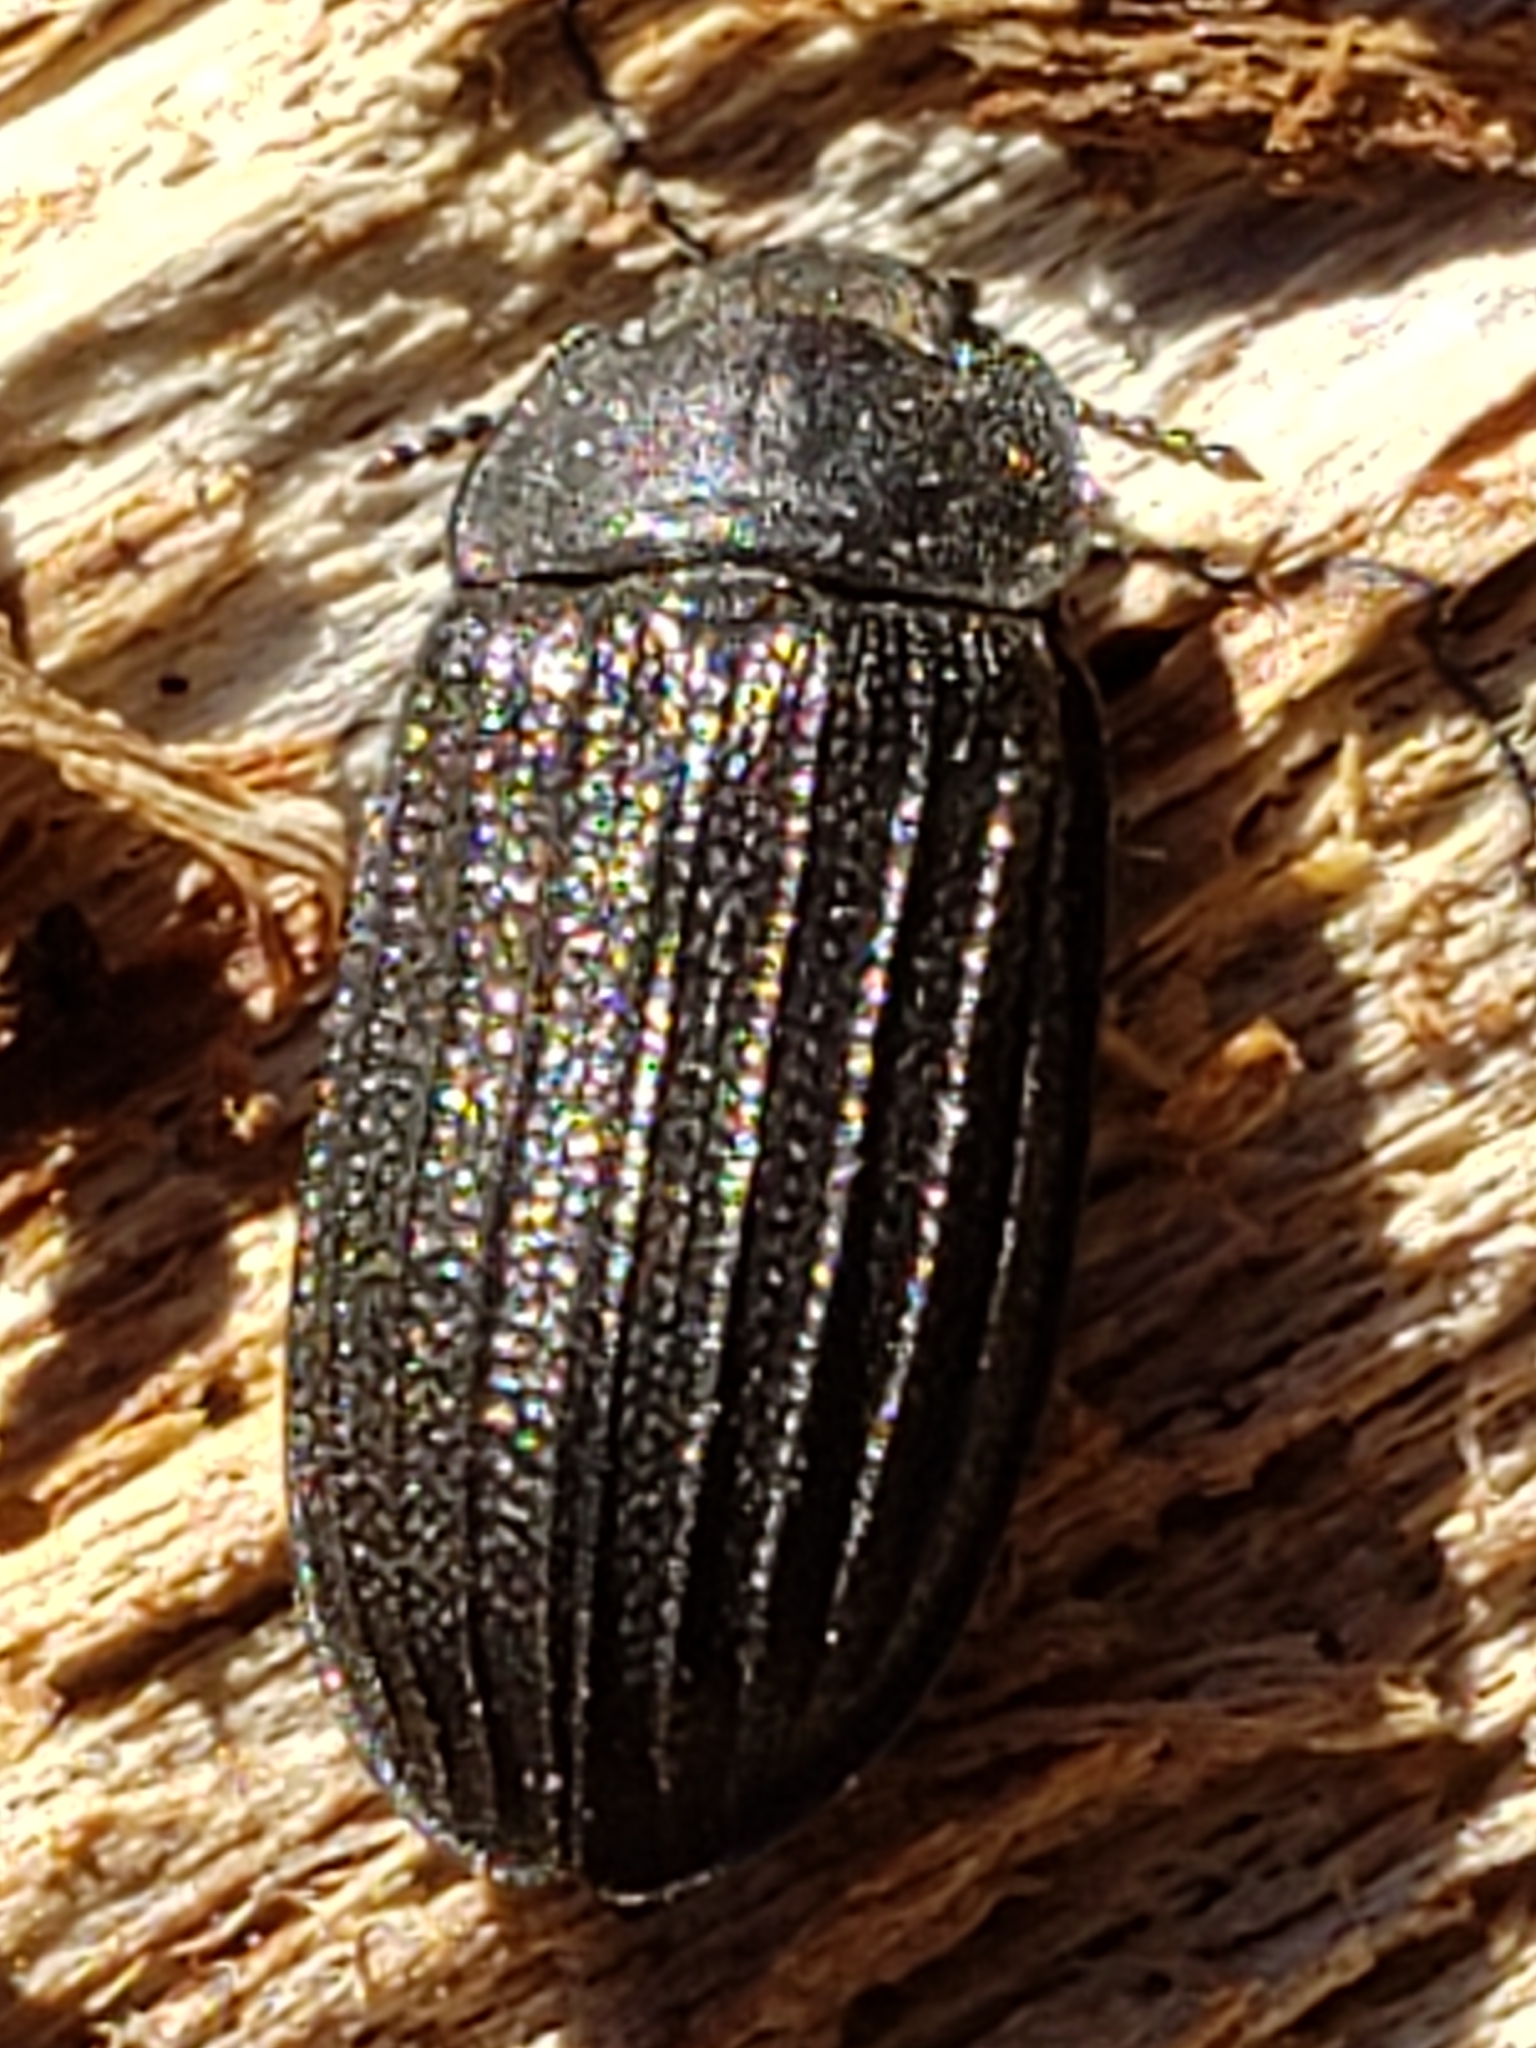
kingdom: Animalia
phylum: Arthropoda
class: Insecta
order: Coleoptera
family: Trogossitidae
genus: Grynocharis
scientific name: Grynocharis quadrilineata
